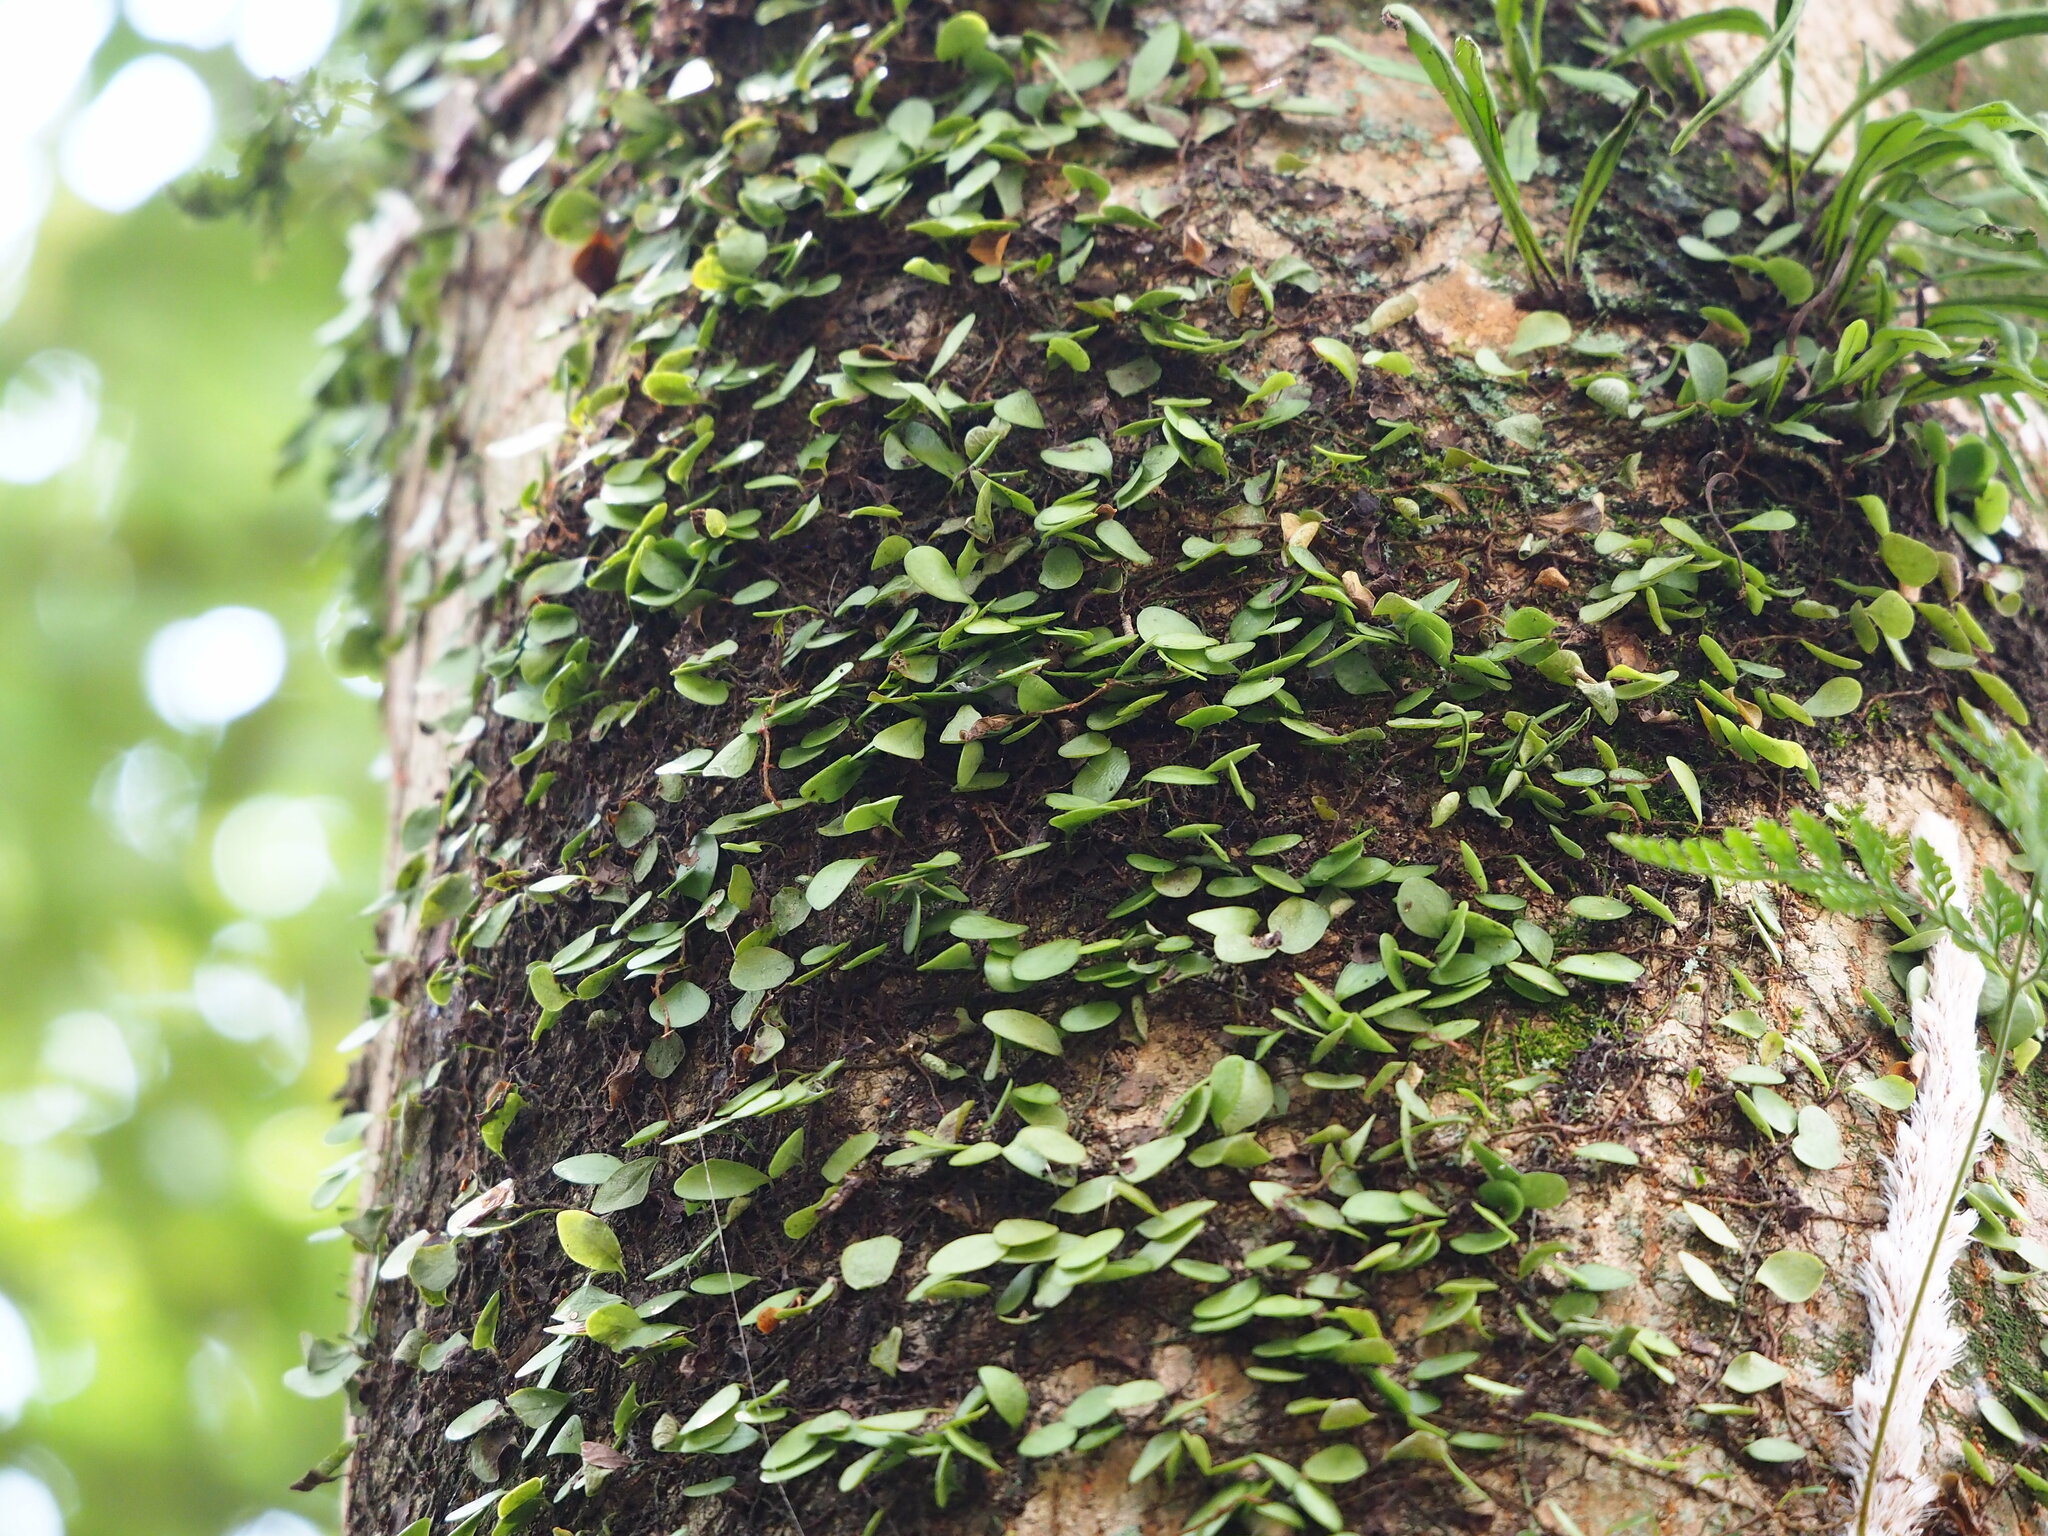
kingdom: Plantae
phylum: Tracheophyta
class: Polypodiopsida
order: Polypodiales
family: Polypodiaceae
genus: Lepisorus
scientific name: Lepisorus microphyllus
